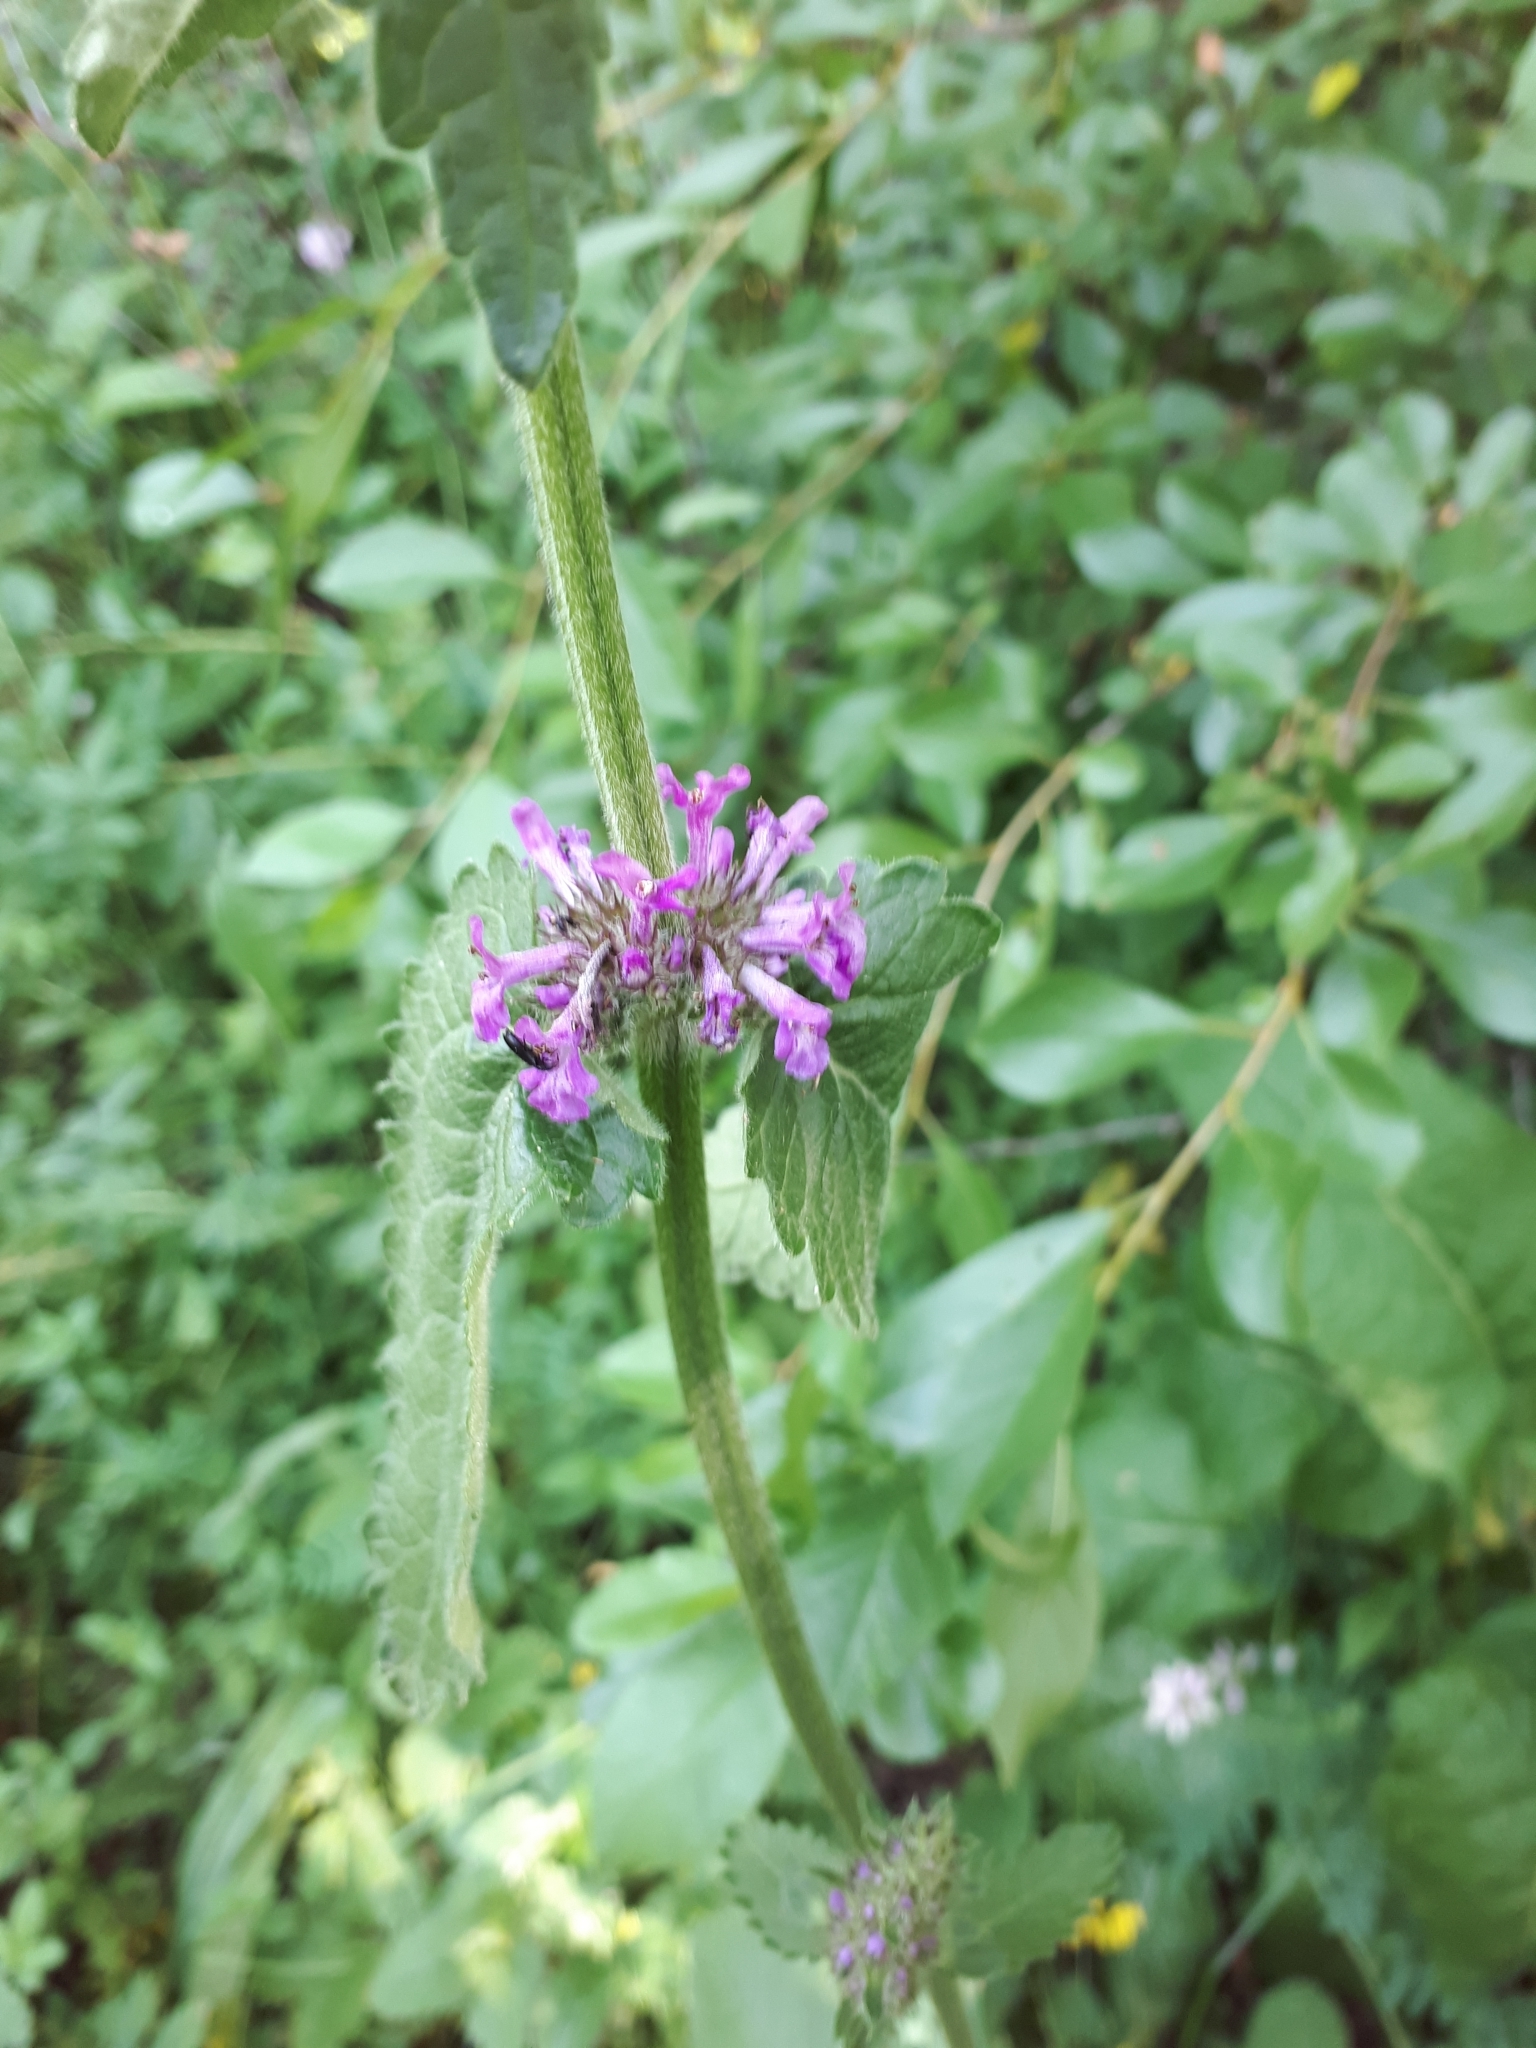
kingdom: Plantae
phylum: Tracheophyta
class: Magnoliopsida
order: Lamiales
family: Lamiaceae
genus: Betonica
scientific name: Betonica officinalis
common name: Bishop's-wort
